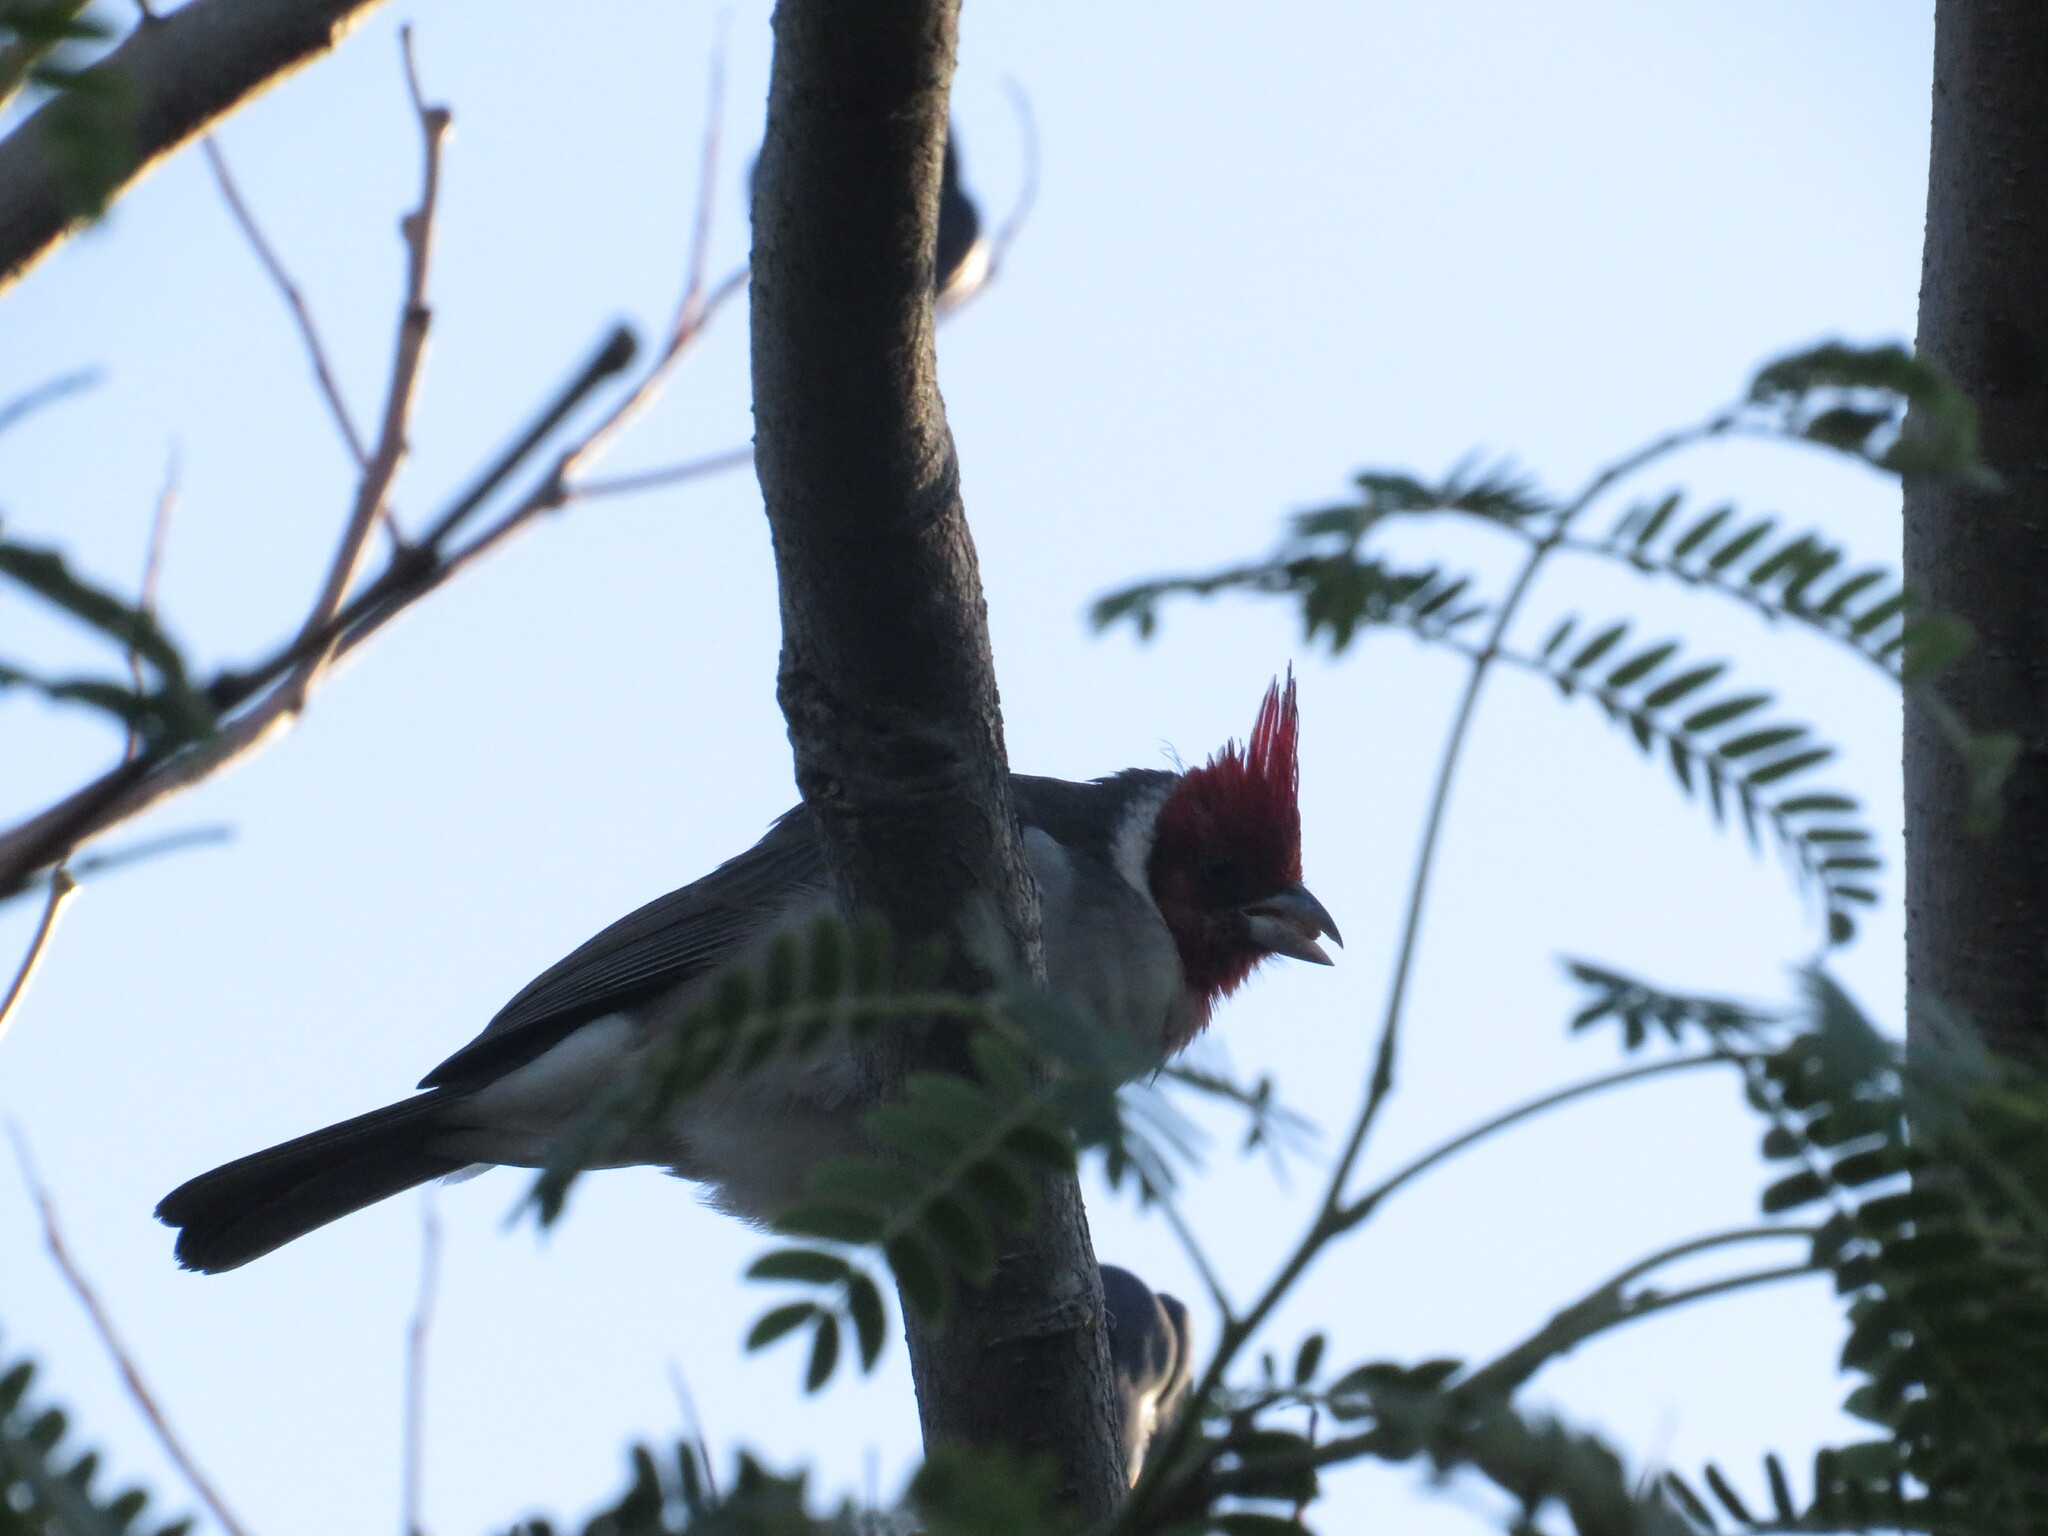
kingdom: Animalia
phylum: Chordata
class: Aves
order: Passeriformes
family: Thraupidae
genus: Paroaria
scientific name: Paroaria coronata
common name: Red-crested cardinal
